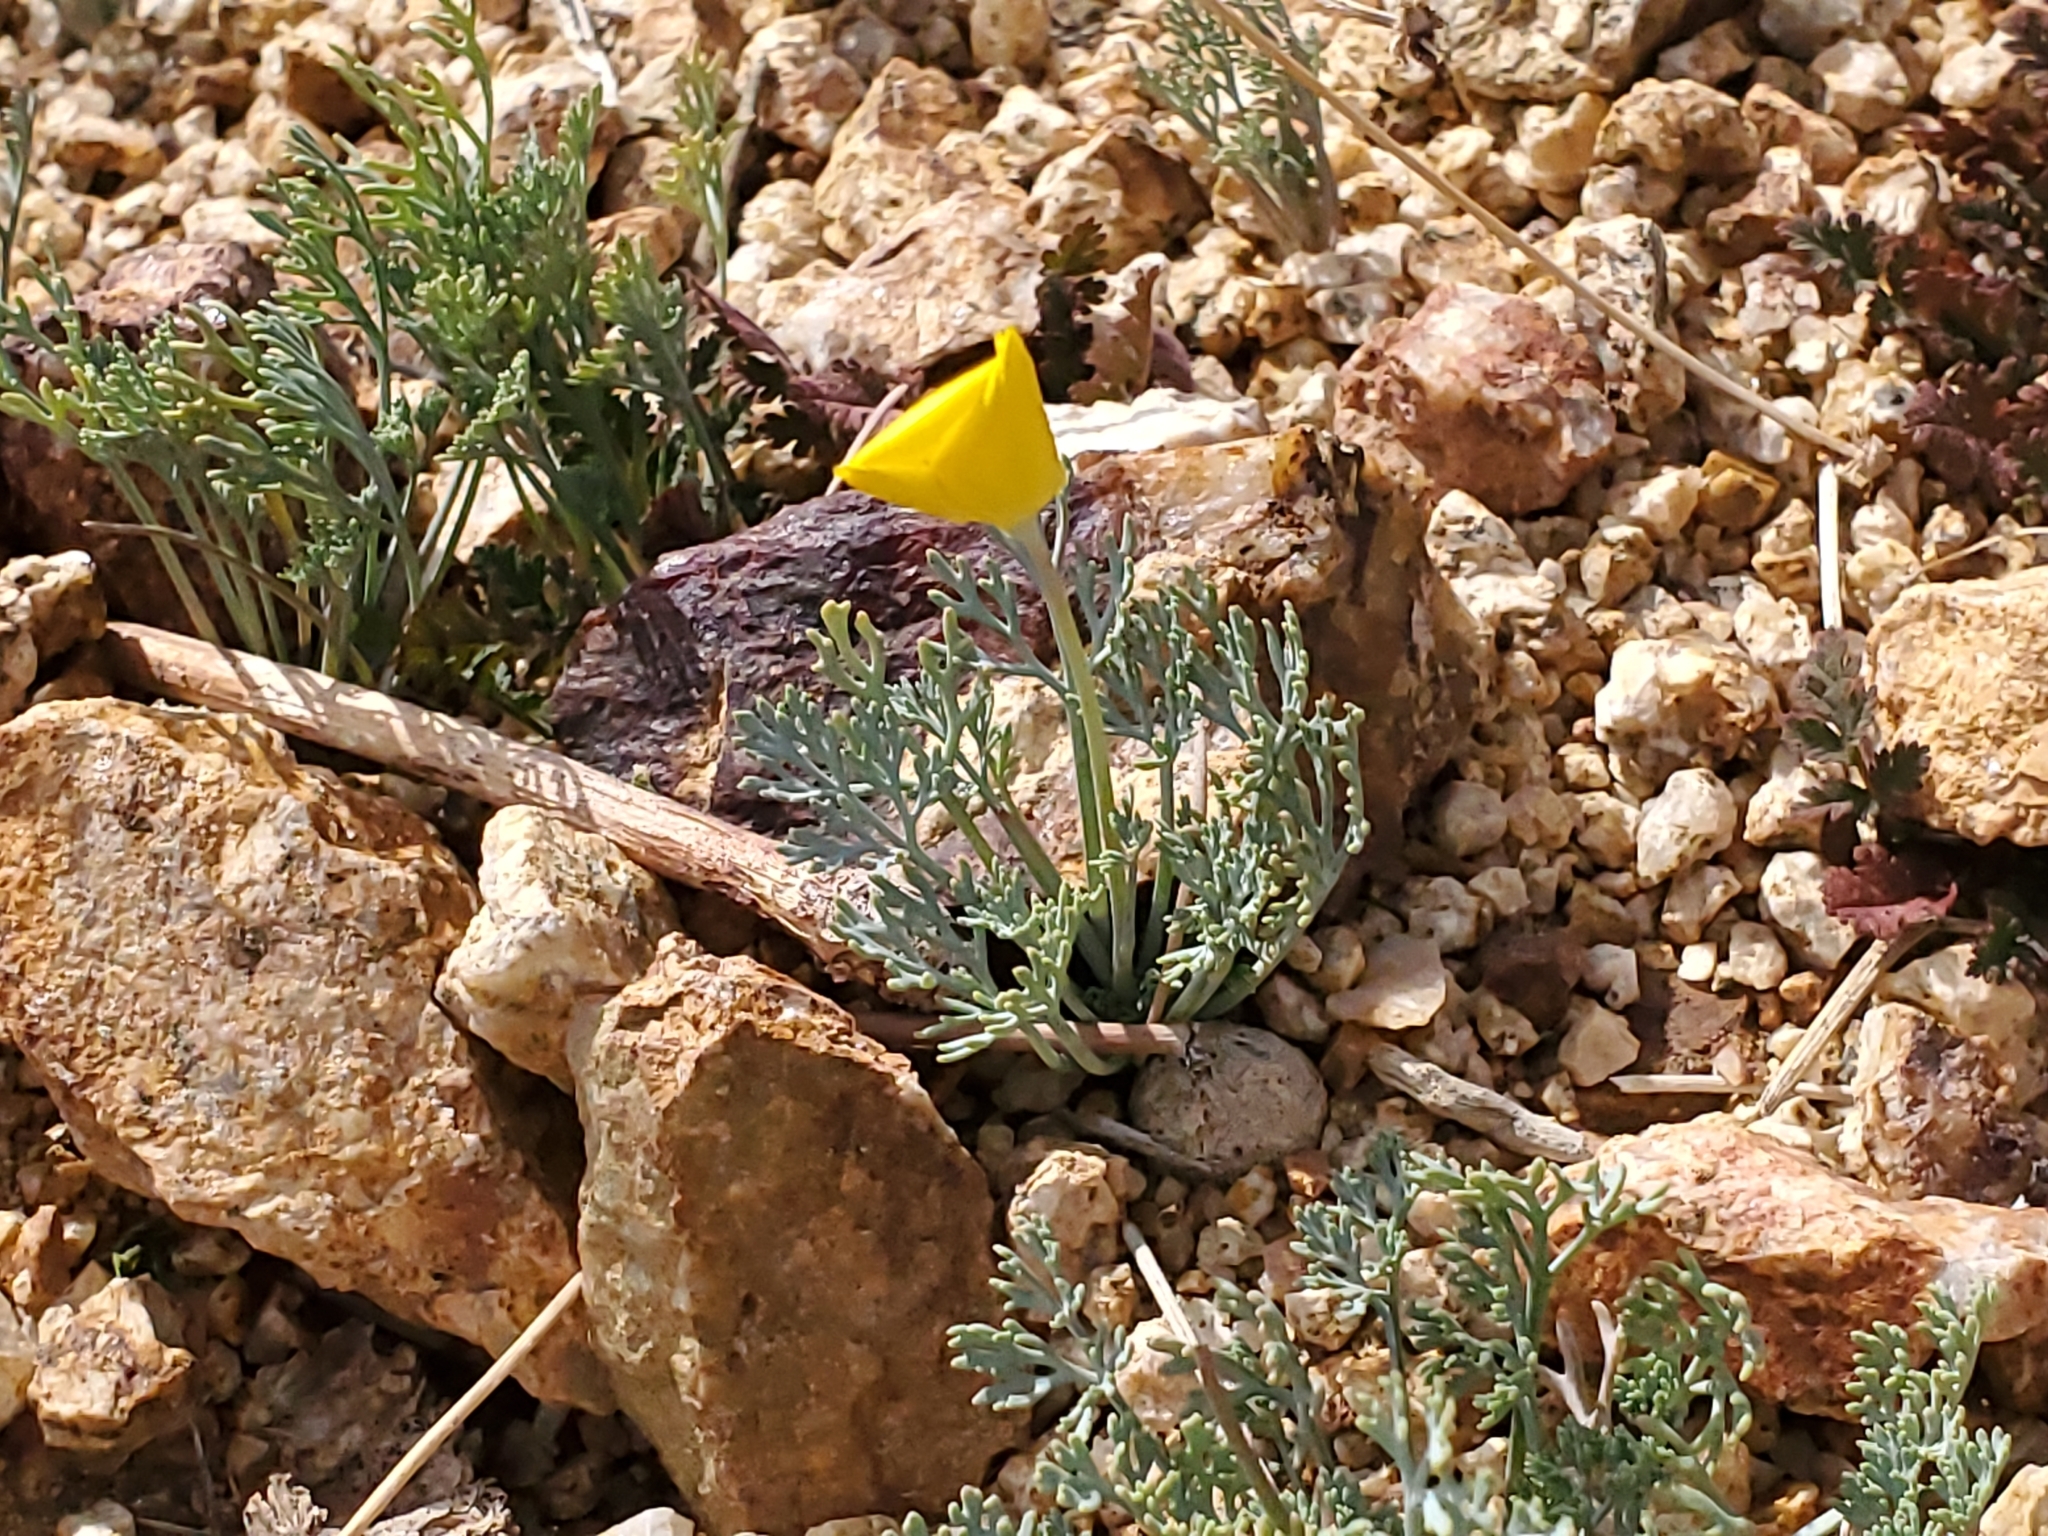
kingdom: Plantae
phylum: Tracheophyta
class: Magnoliopsida
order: Ranunculales
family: Papaveraceae
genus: Eschscholzia
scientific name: Eschscholzia minutiflora
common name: Small-flower california-poppy
